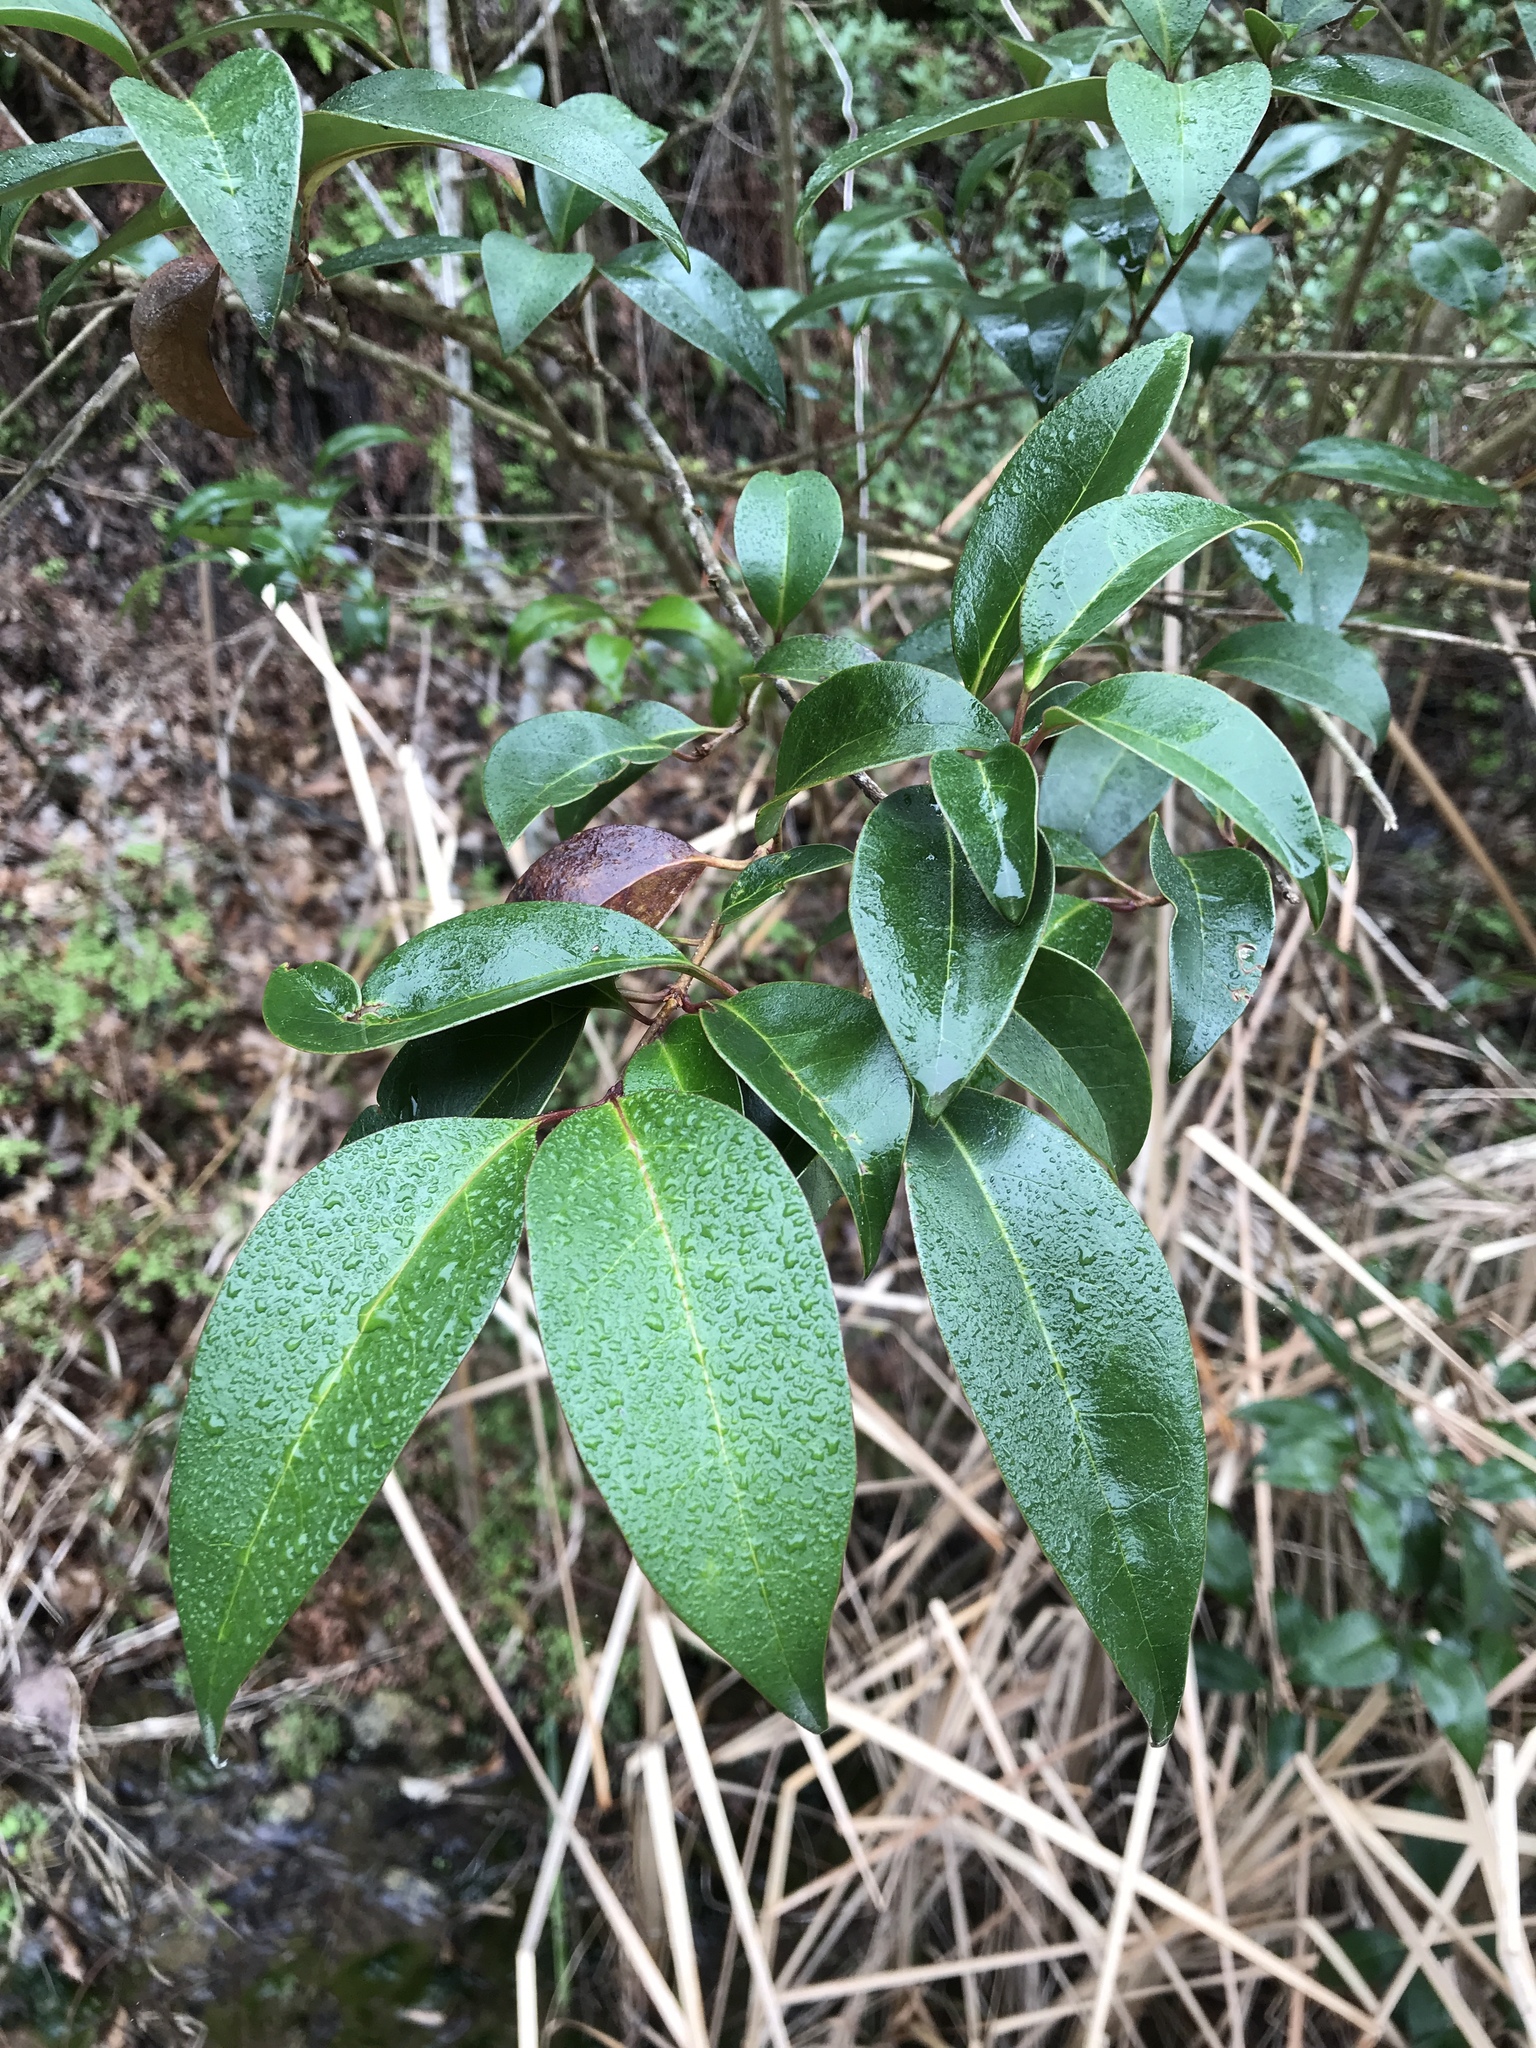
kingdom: Plantae
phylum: Tracheophyta
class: Magnoliopsida
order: Lamiales
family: Oleaceae
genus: Ligustrum
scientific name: Ligustrum lucidum
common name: Glossy privet
